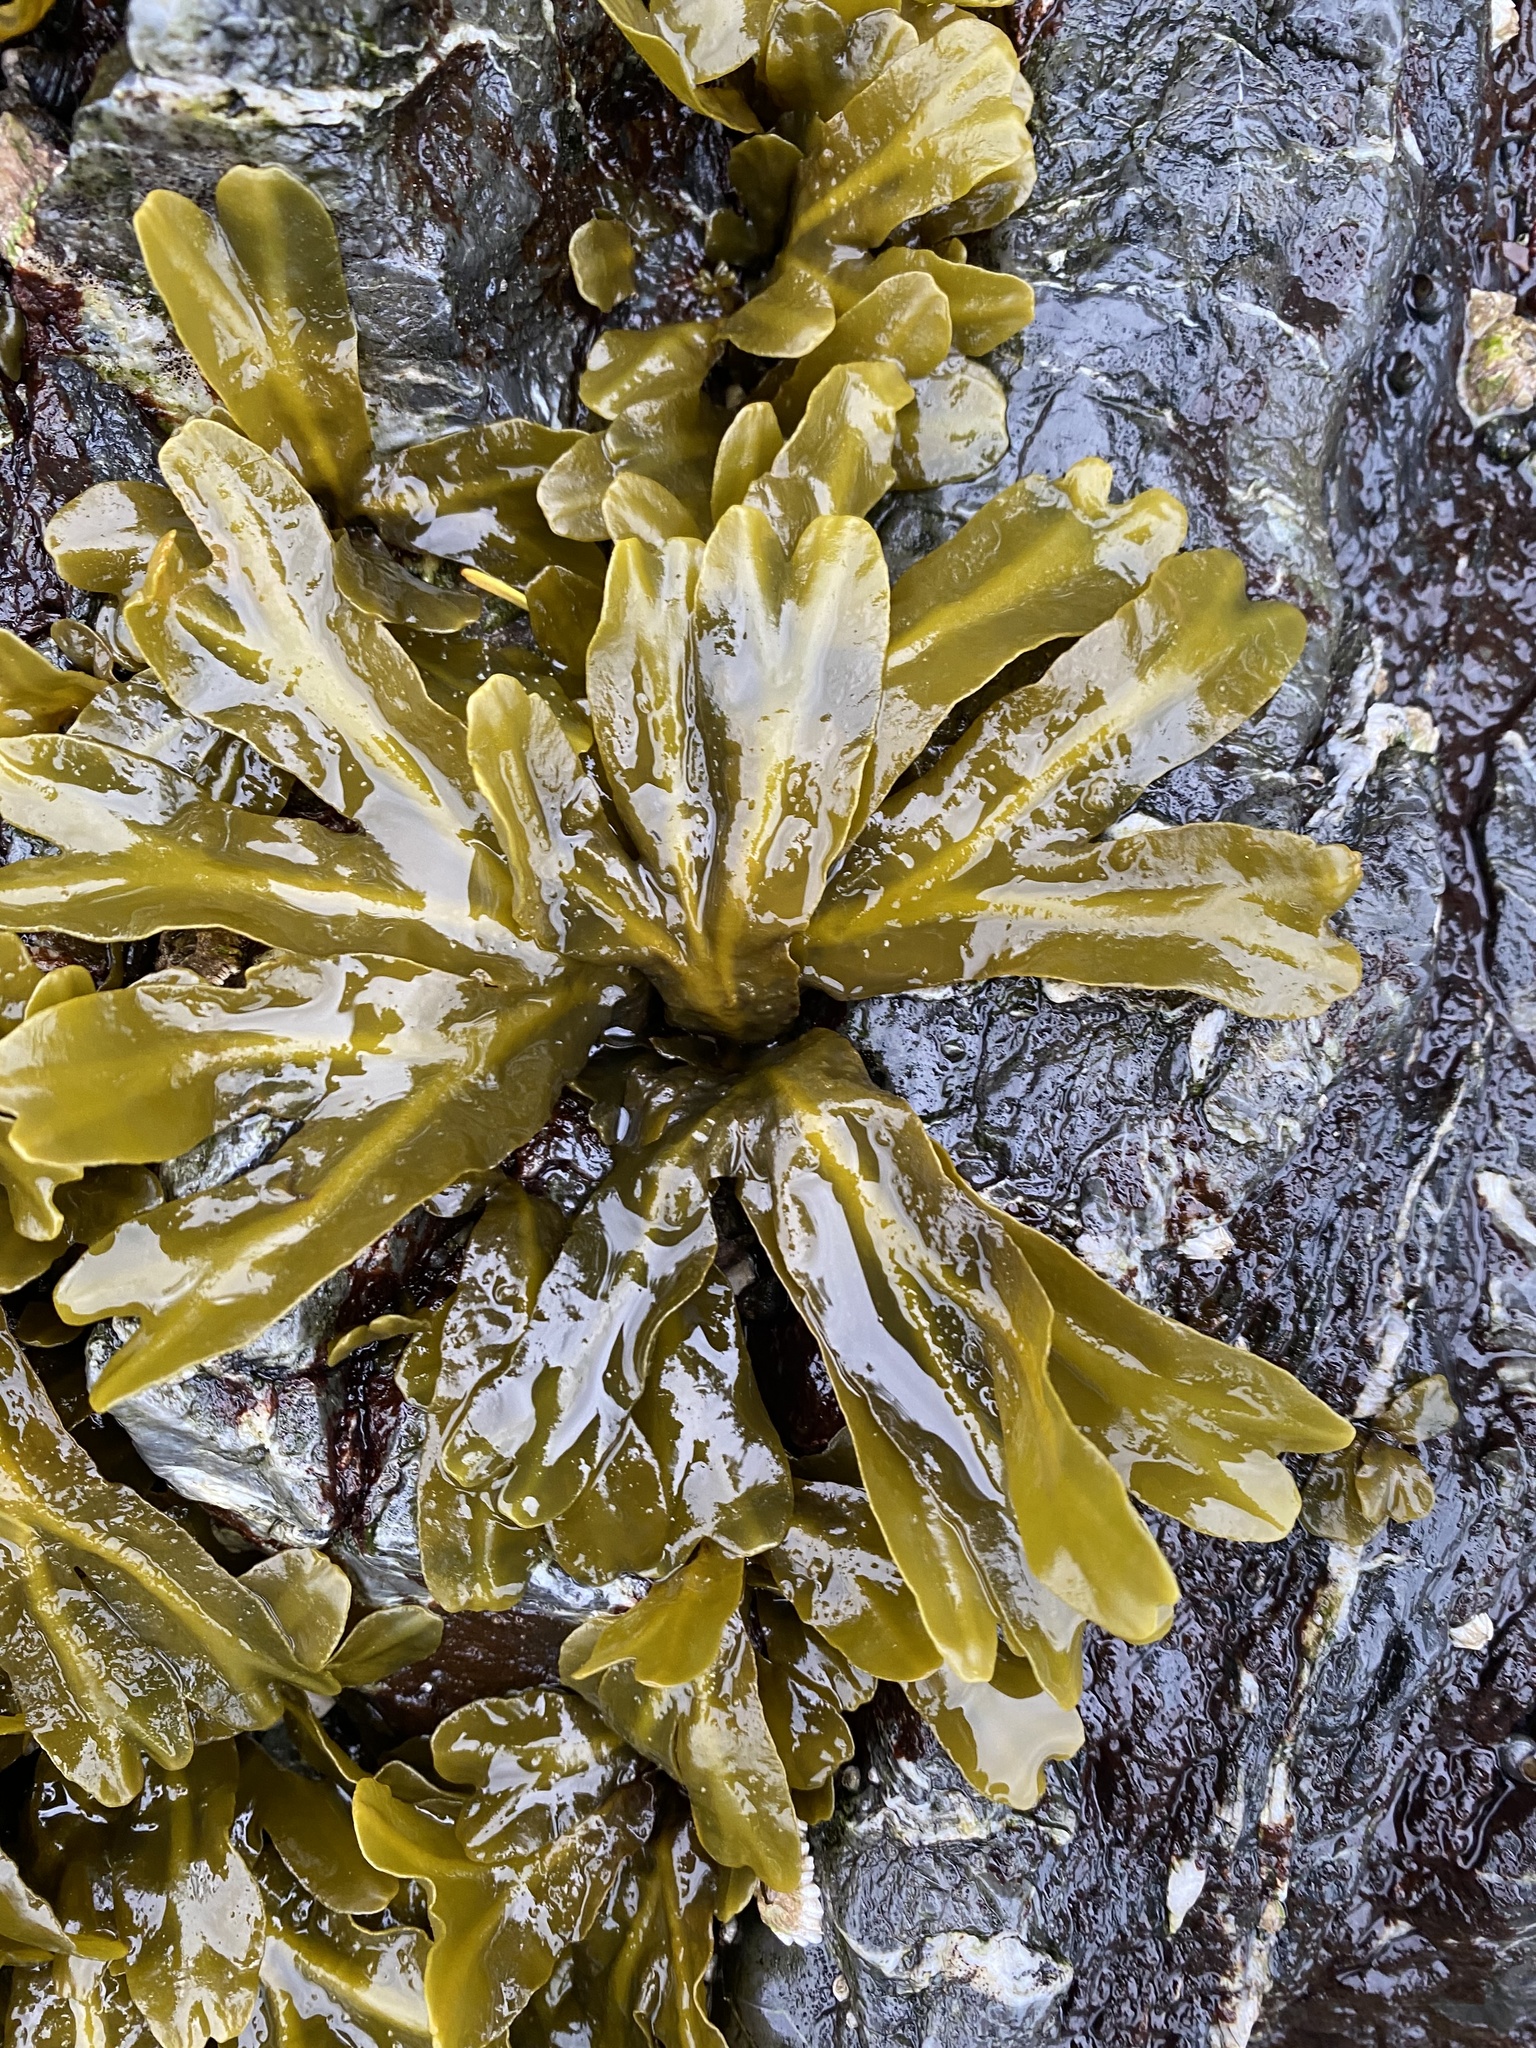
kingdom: Chromista
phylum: Ochrophyta
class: Phaeophyceae
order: Fucales
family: Fucaceae
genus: Fucus
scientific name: Fucus distichus
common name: Rockweed
